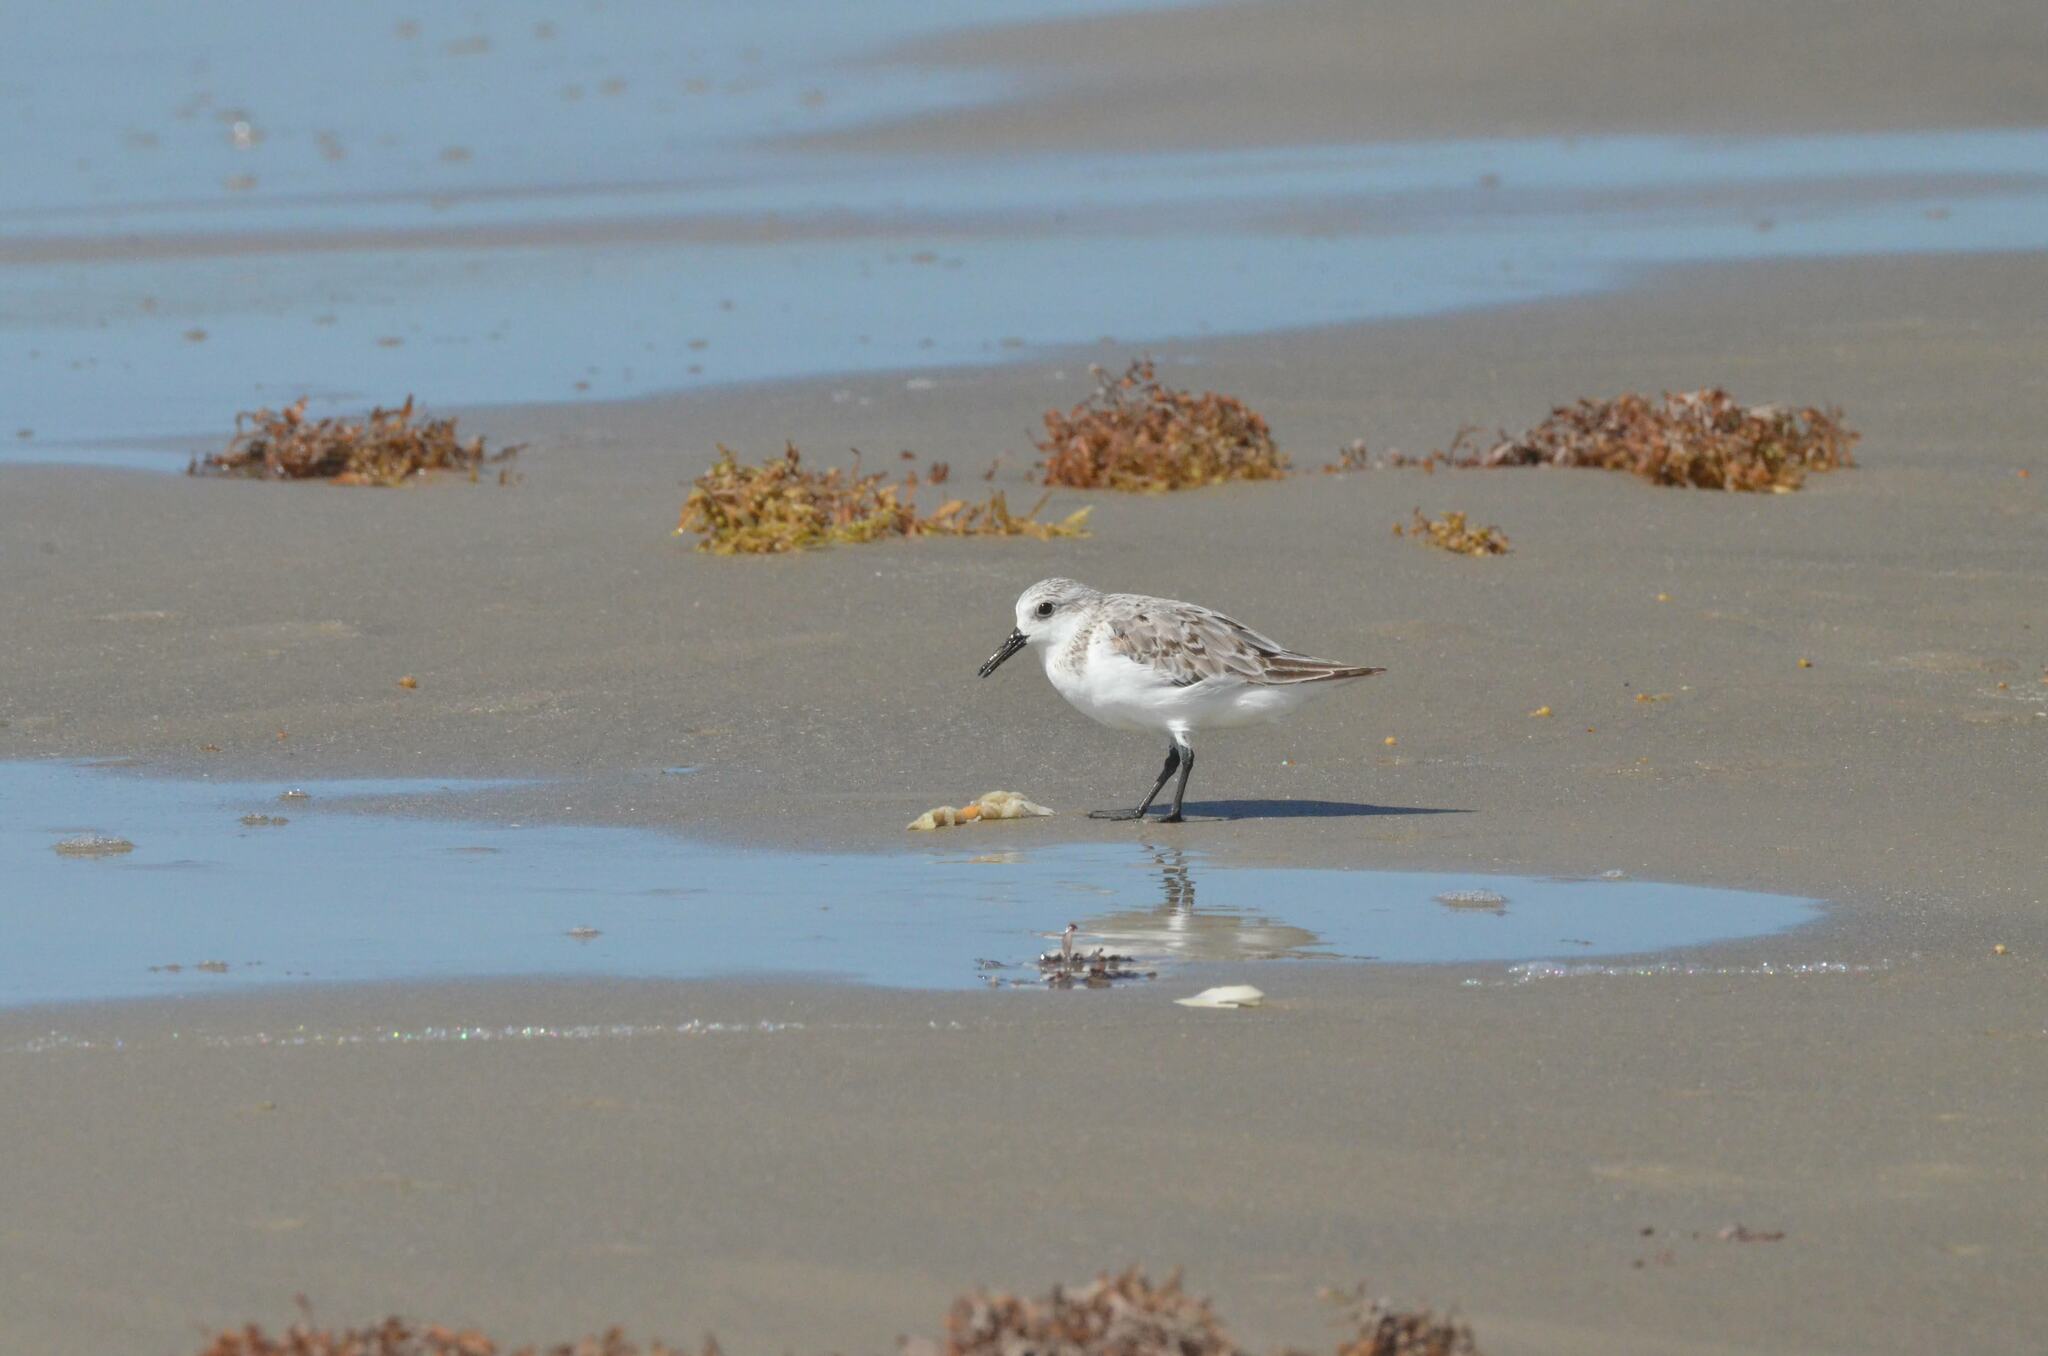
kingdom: Animalia
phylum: Chordata
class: Aves
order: Charadriiformes
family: Scolopacidae
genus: Calidris
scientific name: Calidris alba
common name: Sanderling
